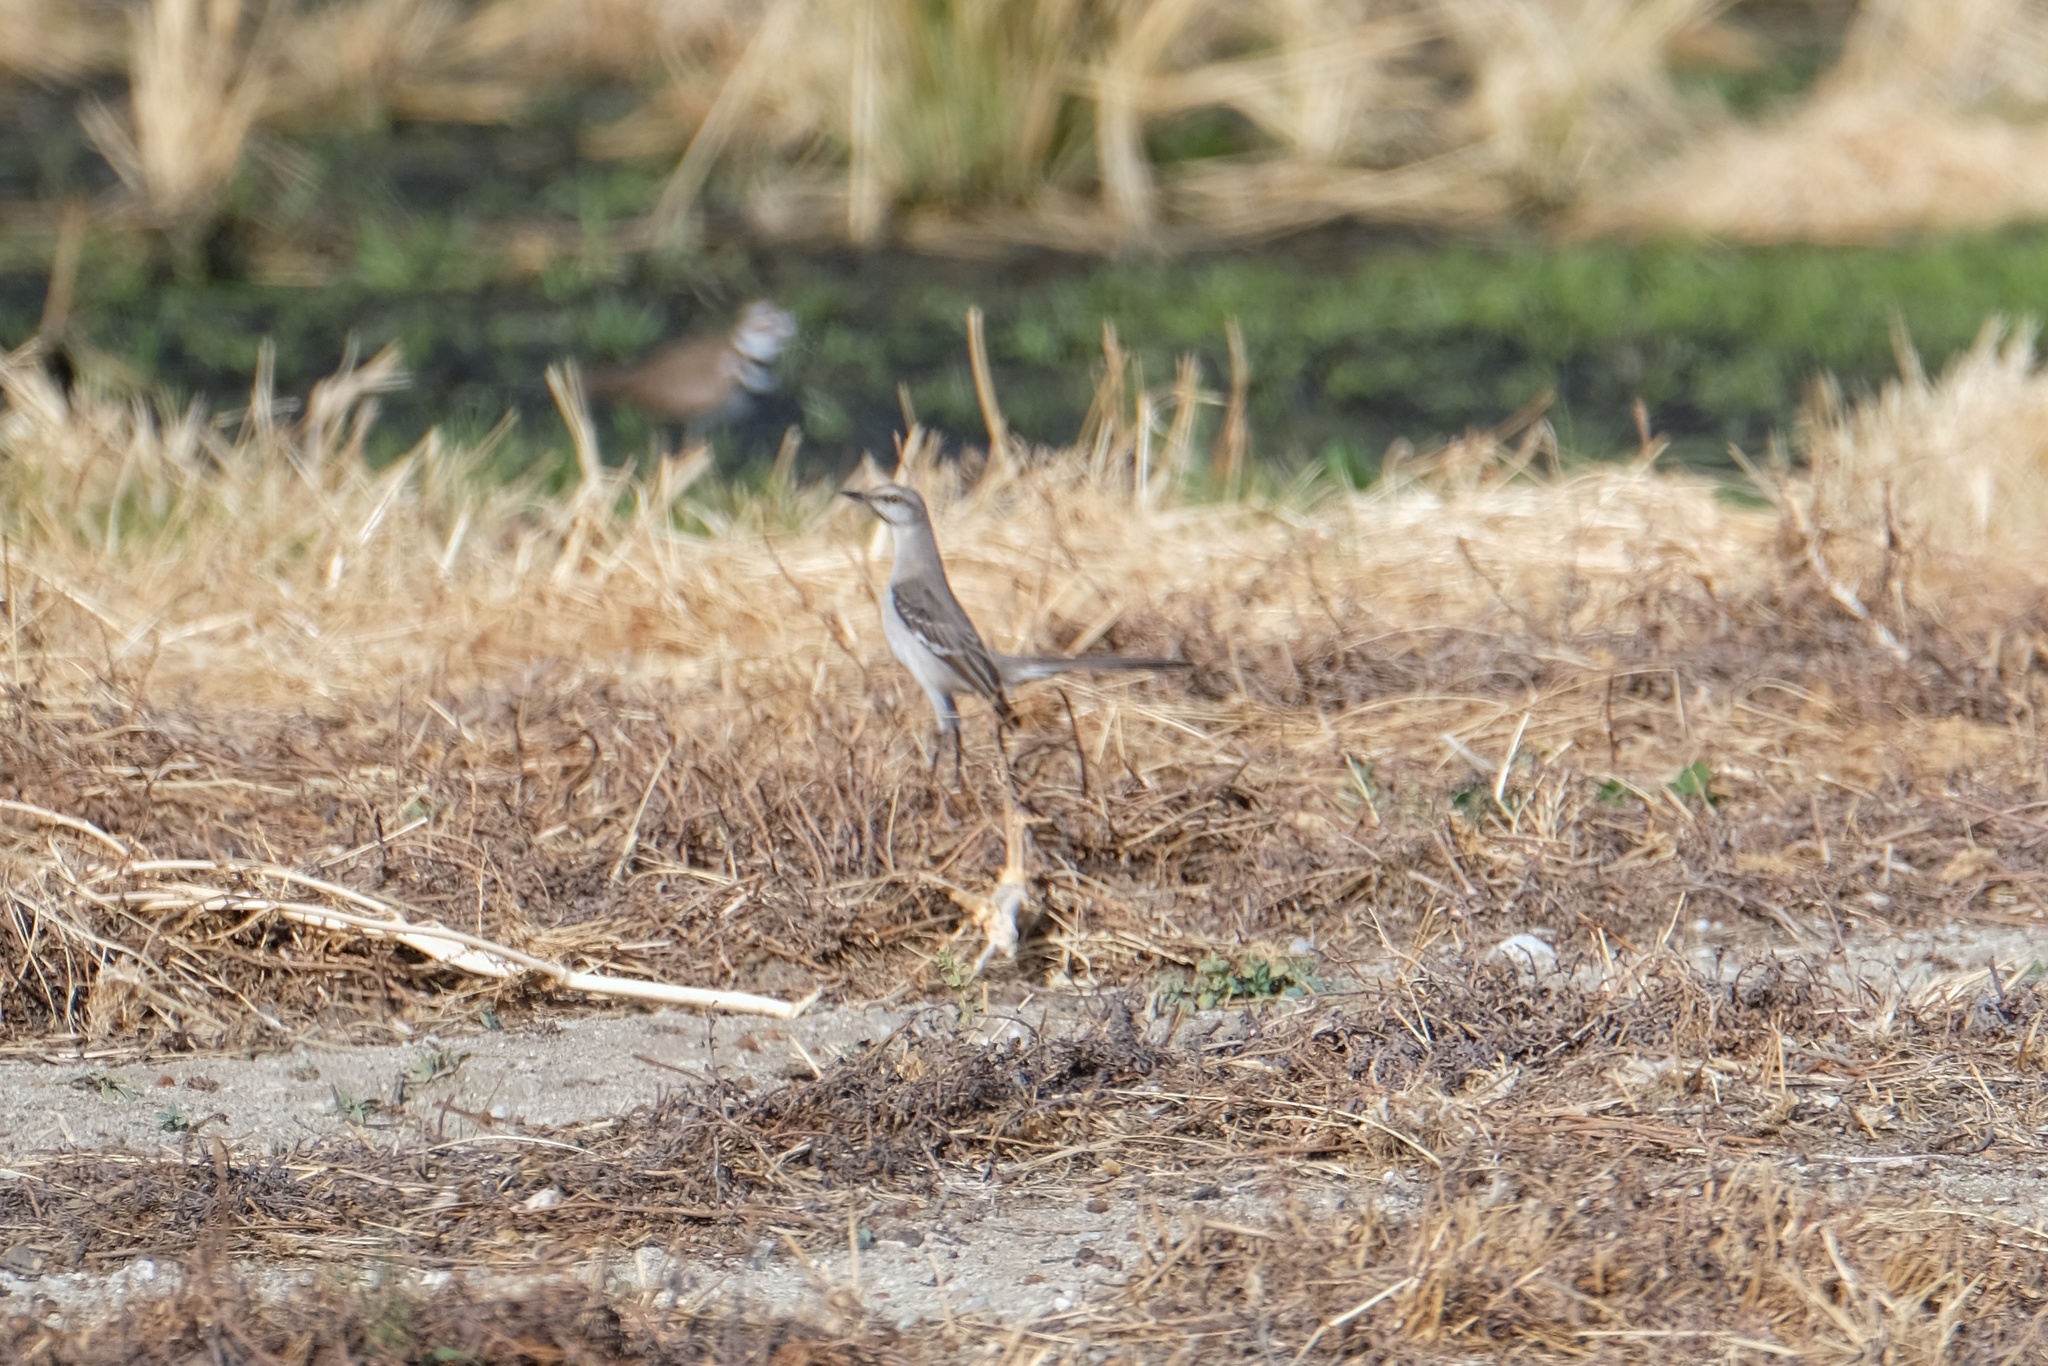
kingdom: Animalia
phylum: Chordata
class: Aves
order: Passeriformes
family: Mimidae
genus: Mimus
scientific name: Mimus polyglottos
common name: Northern mockingbird
